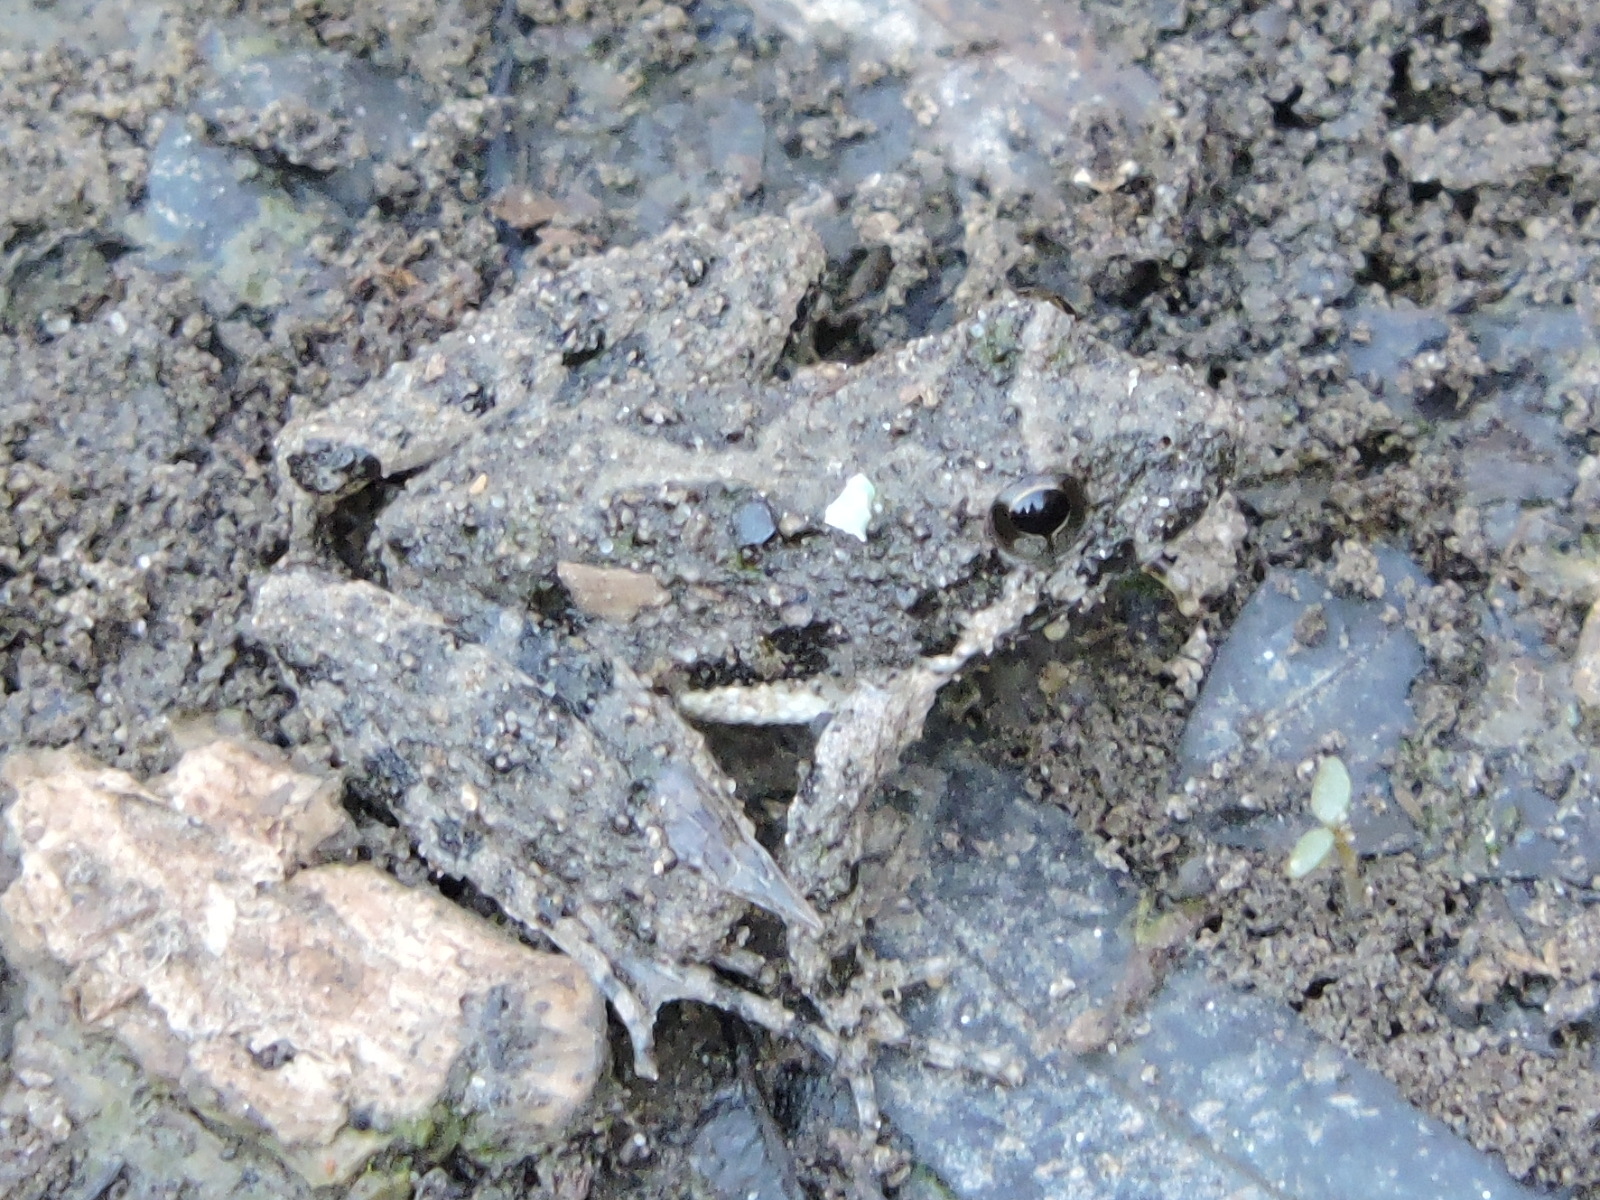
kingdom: Animalia
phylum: Chordata
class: Amphibia
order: Anura
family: Hylidae
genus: Acris
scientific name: Acris blanchardi
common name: Blanchard's cricket frog
